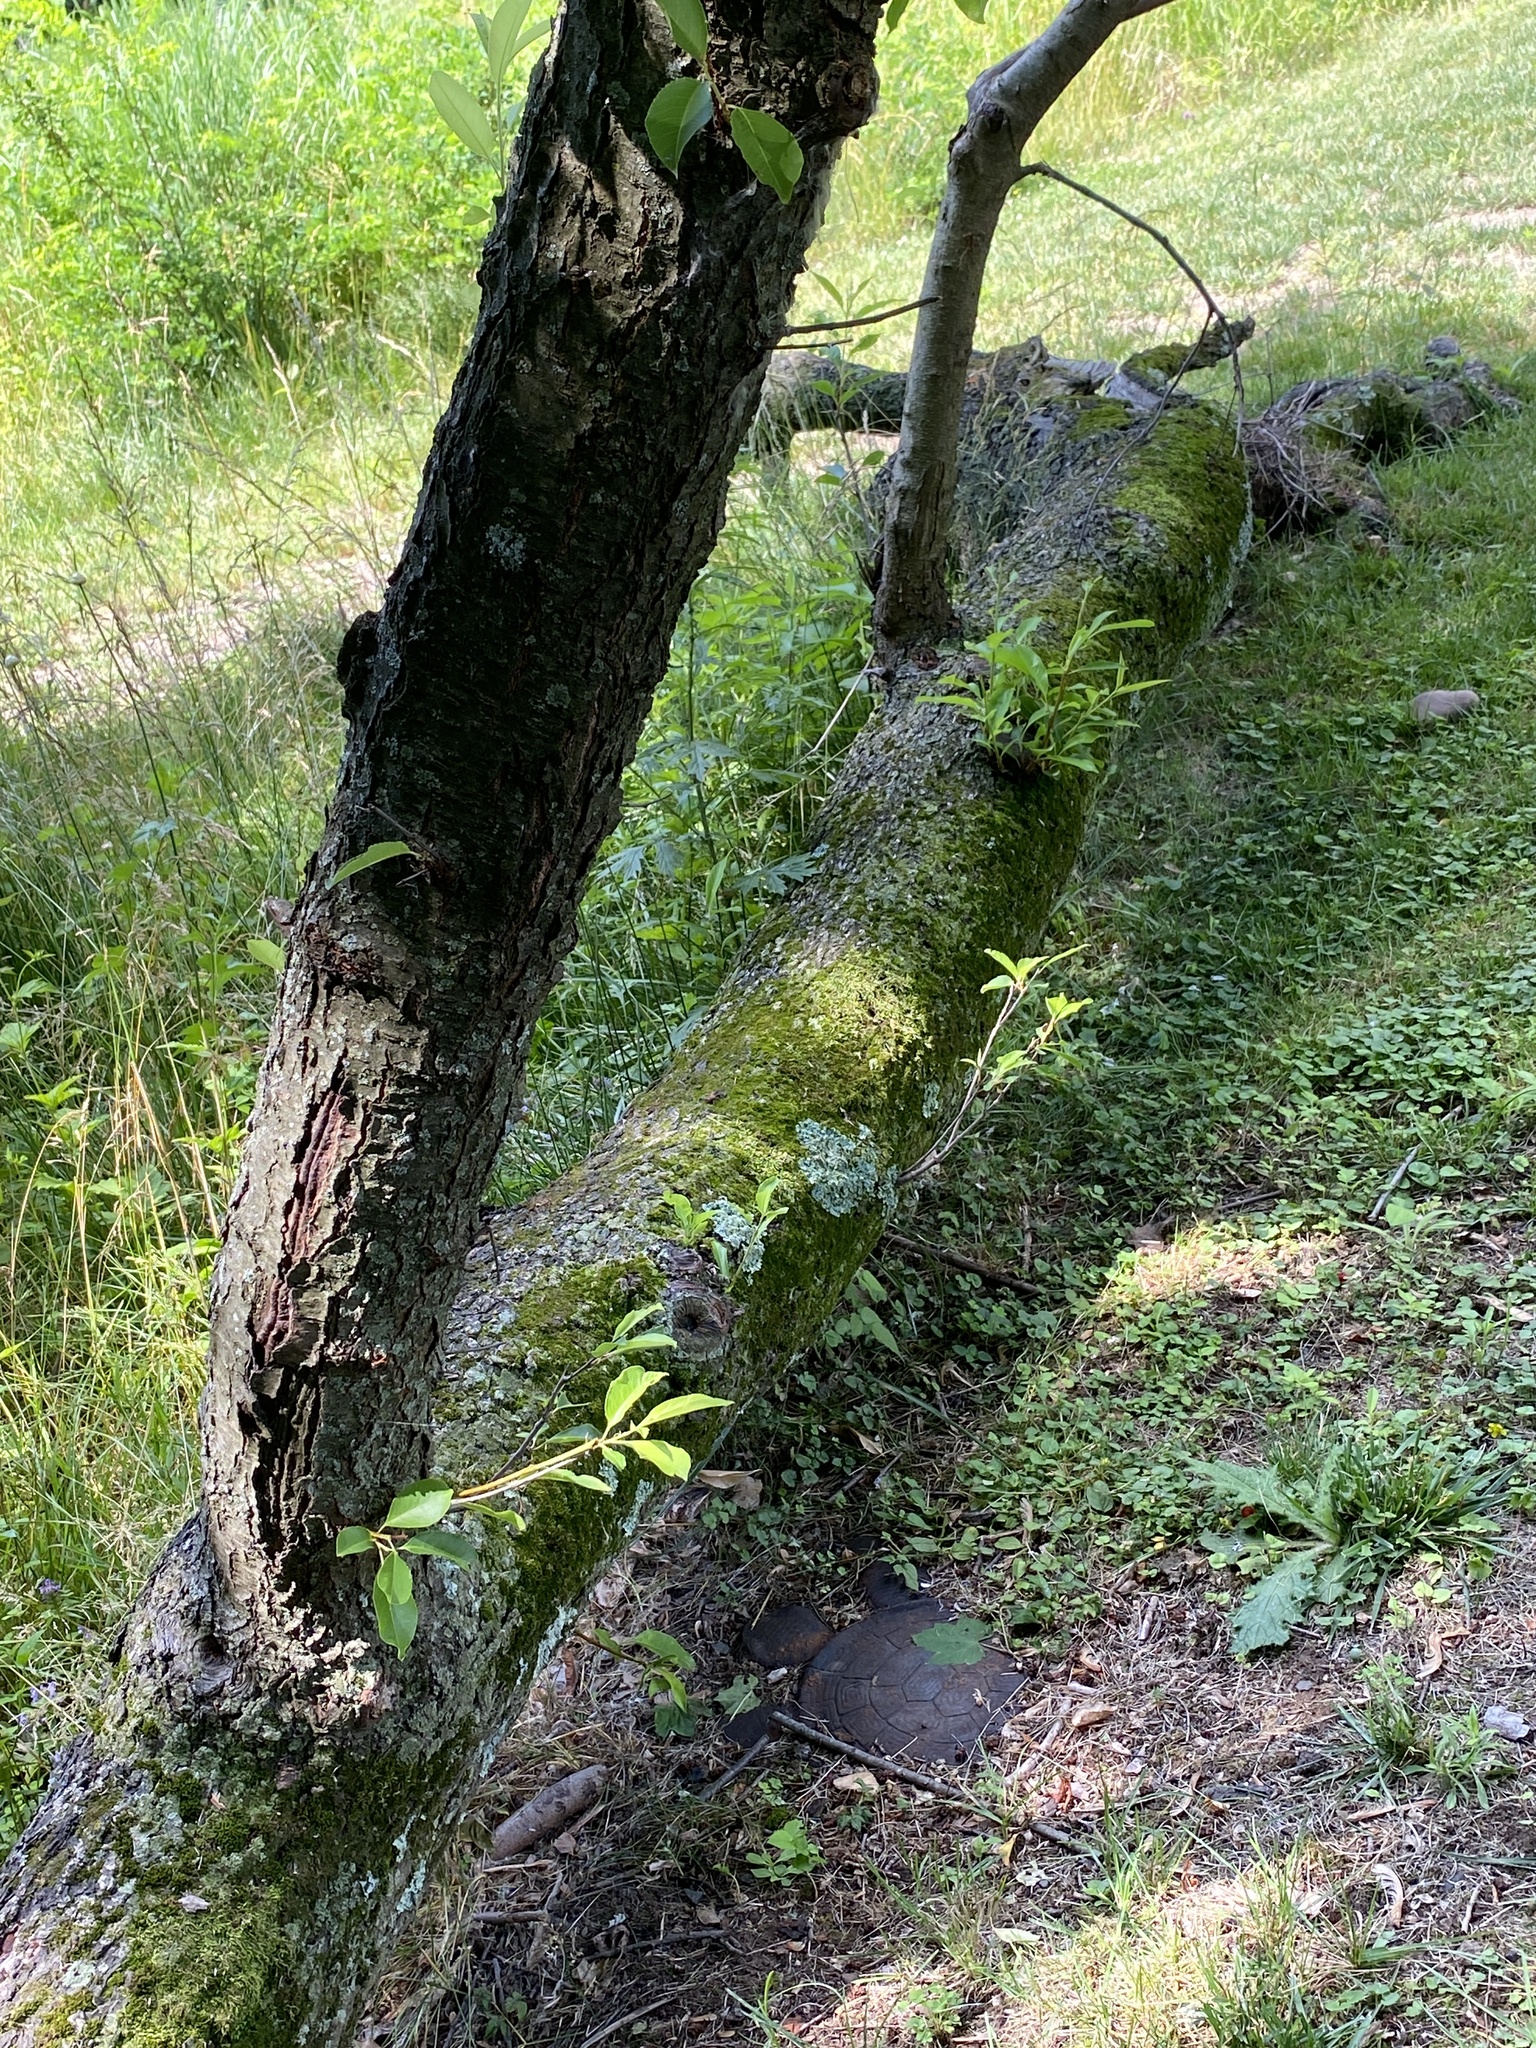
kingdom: Plantae
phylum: Tracheophyta
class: Magnoliopsida
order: Rosales
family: Rosaceae
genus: Prunus
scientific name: Prunus serotina
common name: Black cherry
